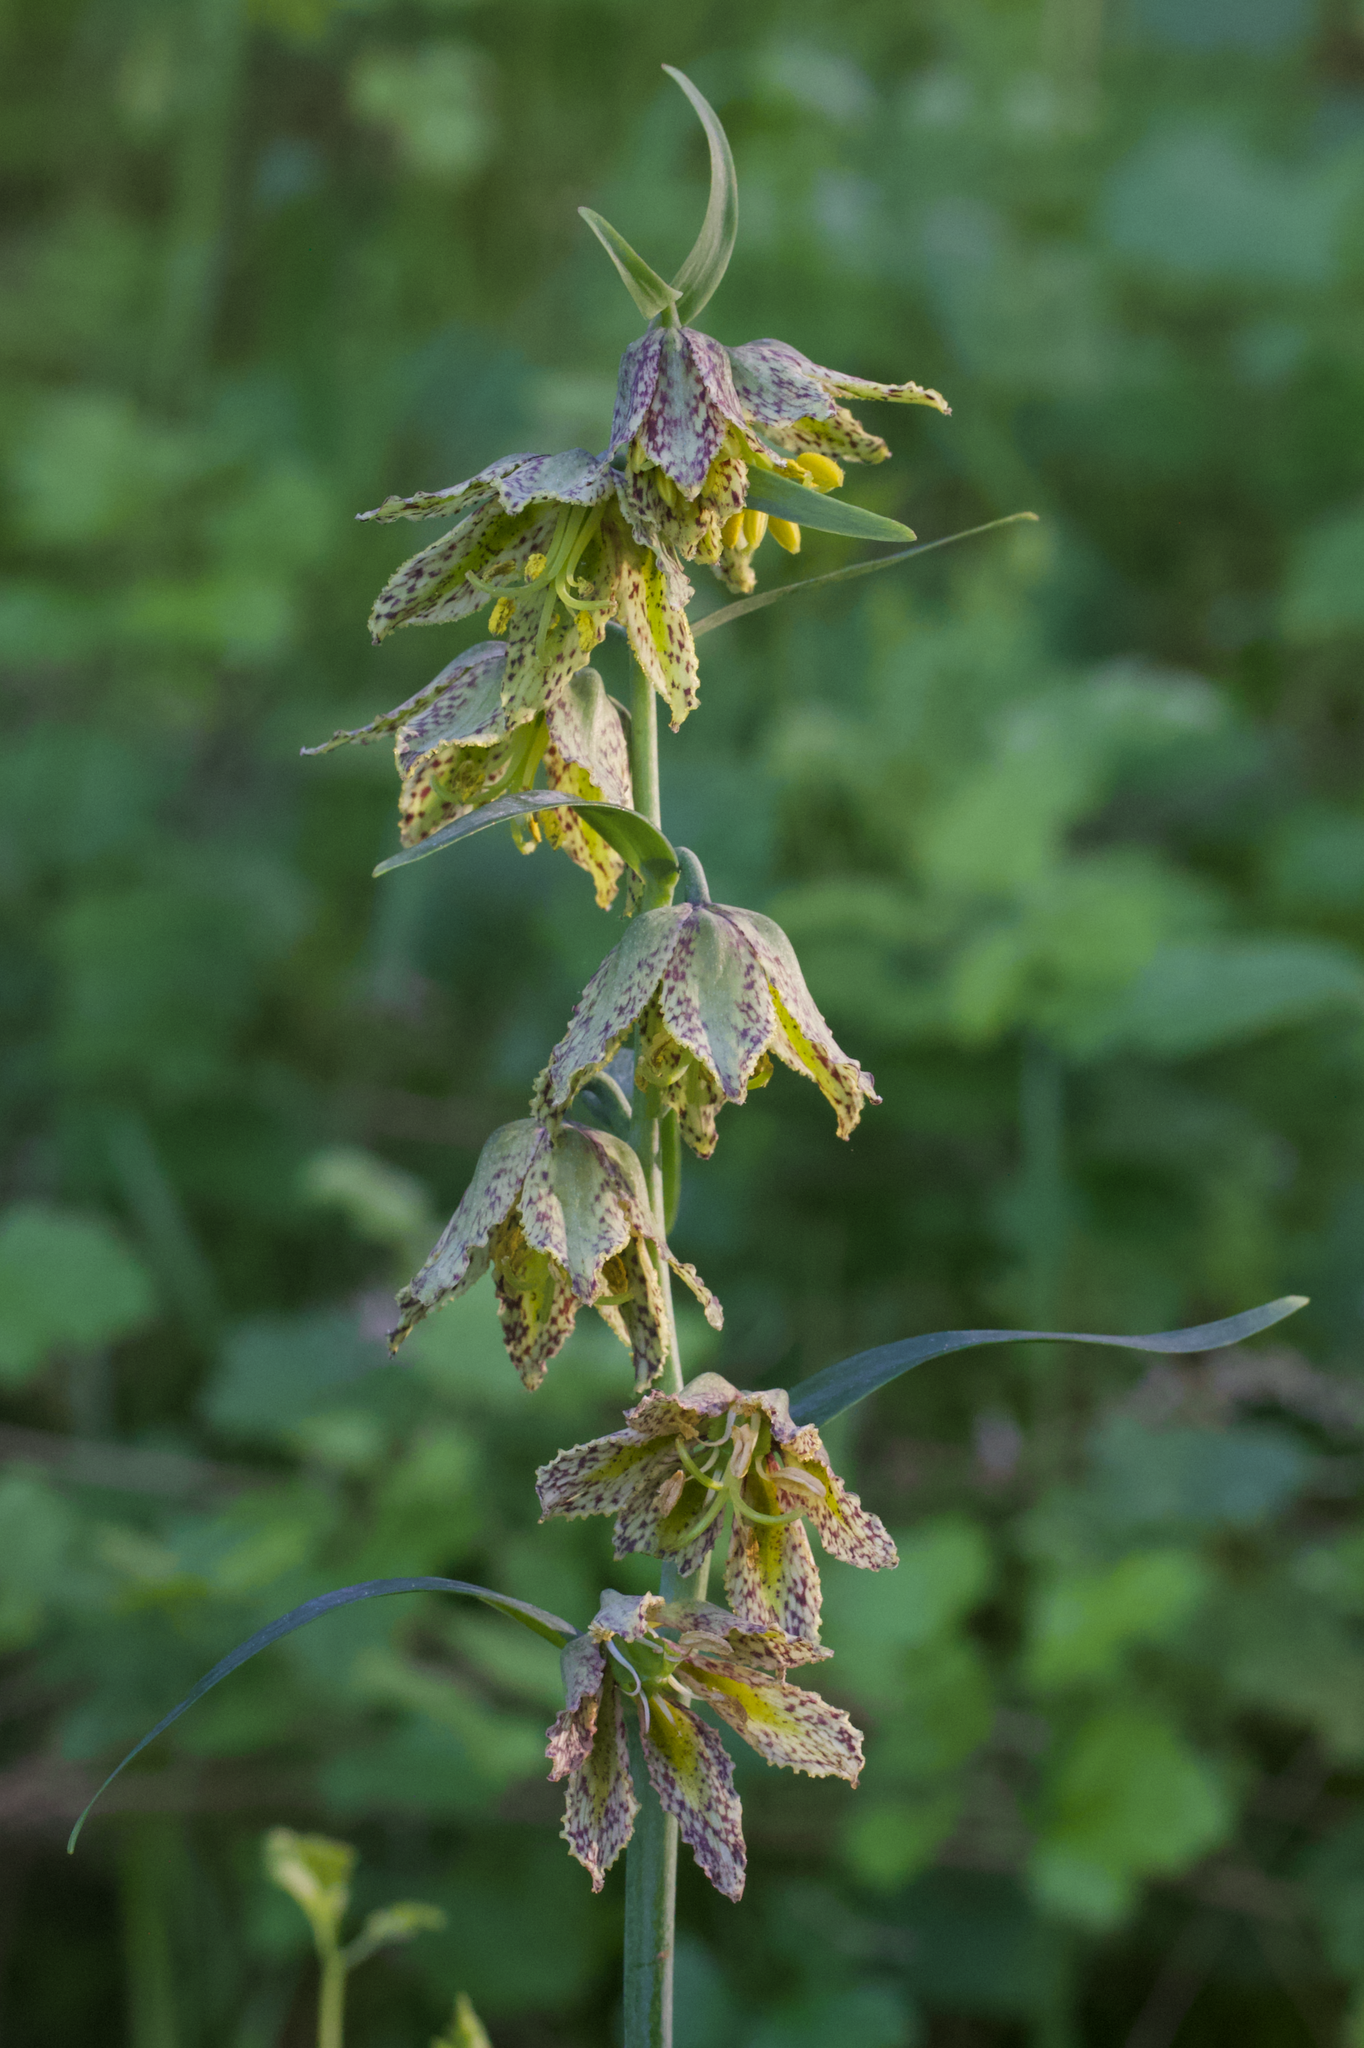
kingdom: Plantae
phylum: Tracheophyta
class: Liliopsida
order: Liliales
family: Liliaceae
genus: Fritillaria
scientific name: Fritillaria affinis
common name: Ojai fritillary
